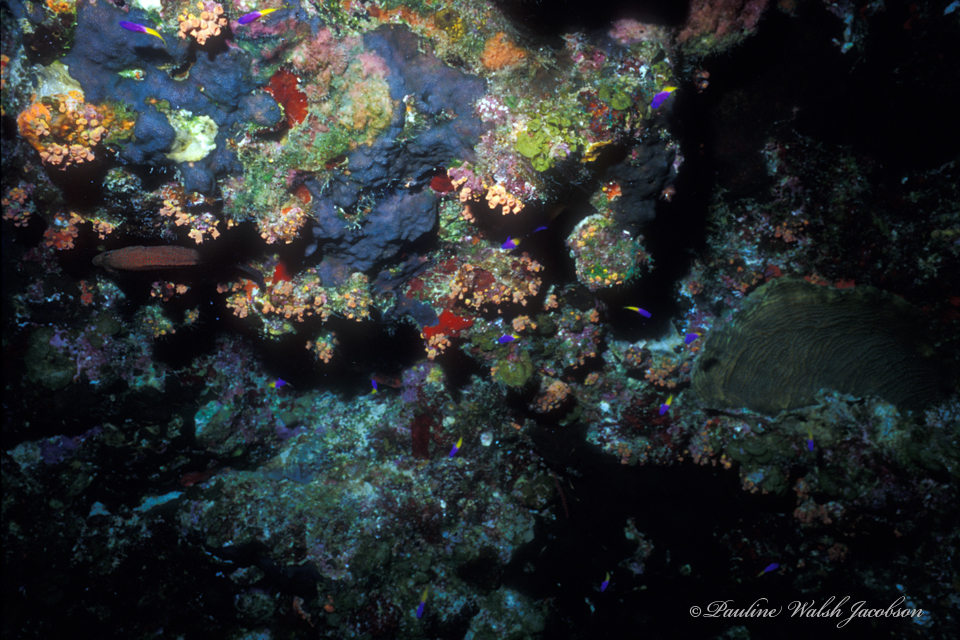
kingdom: Animalia
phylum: Chordata
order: Perciformes
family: Grammatidae
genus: Gramma
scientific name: Gramma loreto
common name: Fairy basslet
